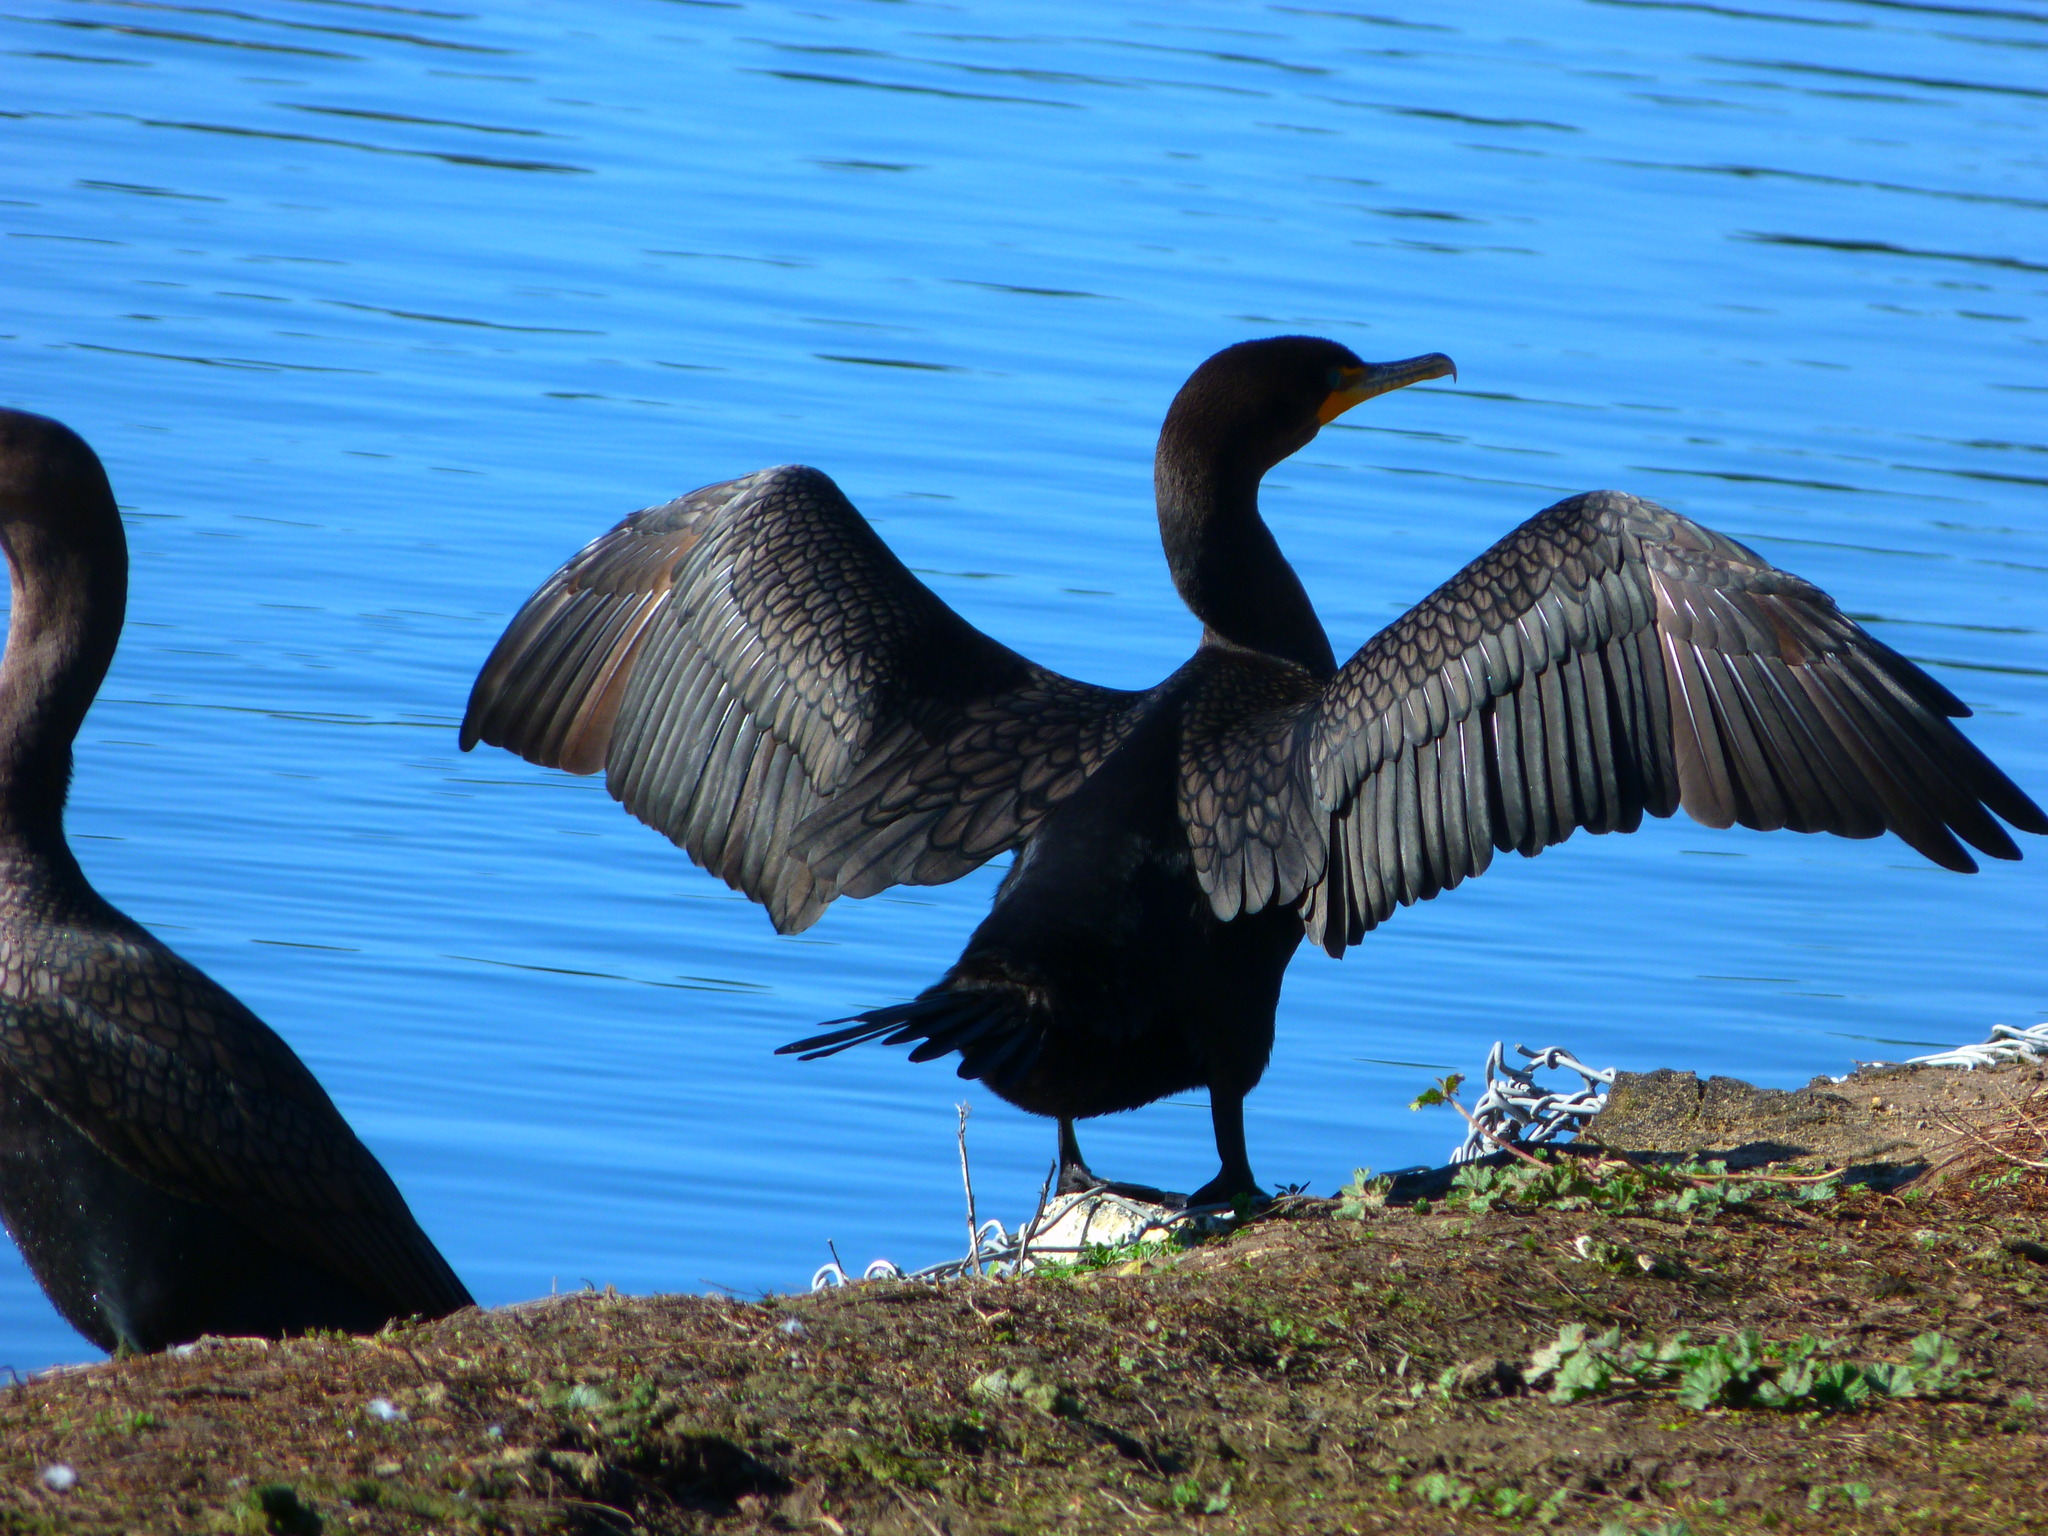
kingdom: Animalia
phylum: Chordata
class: Aves
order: Suliformes
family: Phalacrocoracidae
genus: Phalacrocorax
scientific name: Phalacrocorax auritus
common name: Double-crested cormorant
